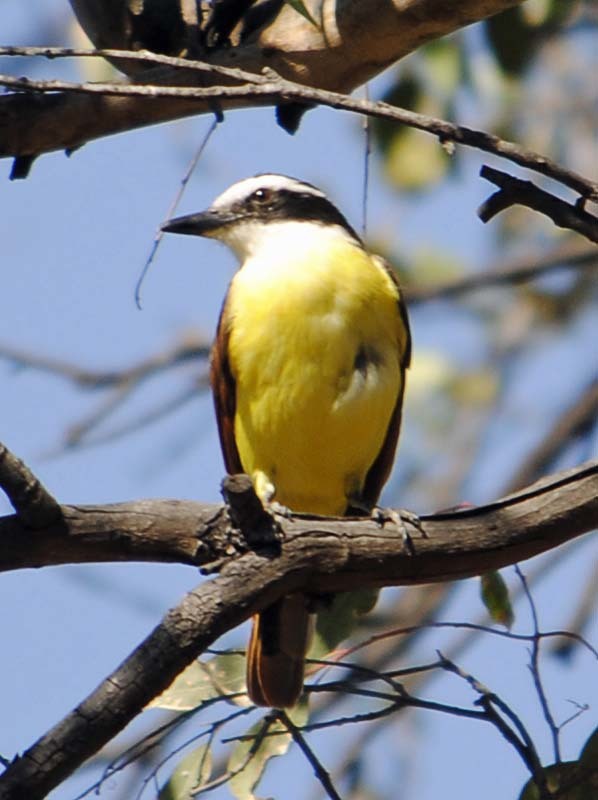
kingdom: Animalia
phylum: Chordata
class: Aves
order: Passeriformes
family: Tyrannidae
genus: Pitangus
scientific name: Pitangus sulphuratus
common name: Great kiskadee
